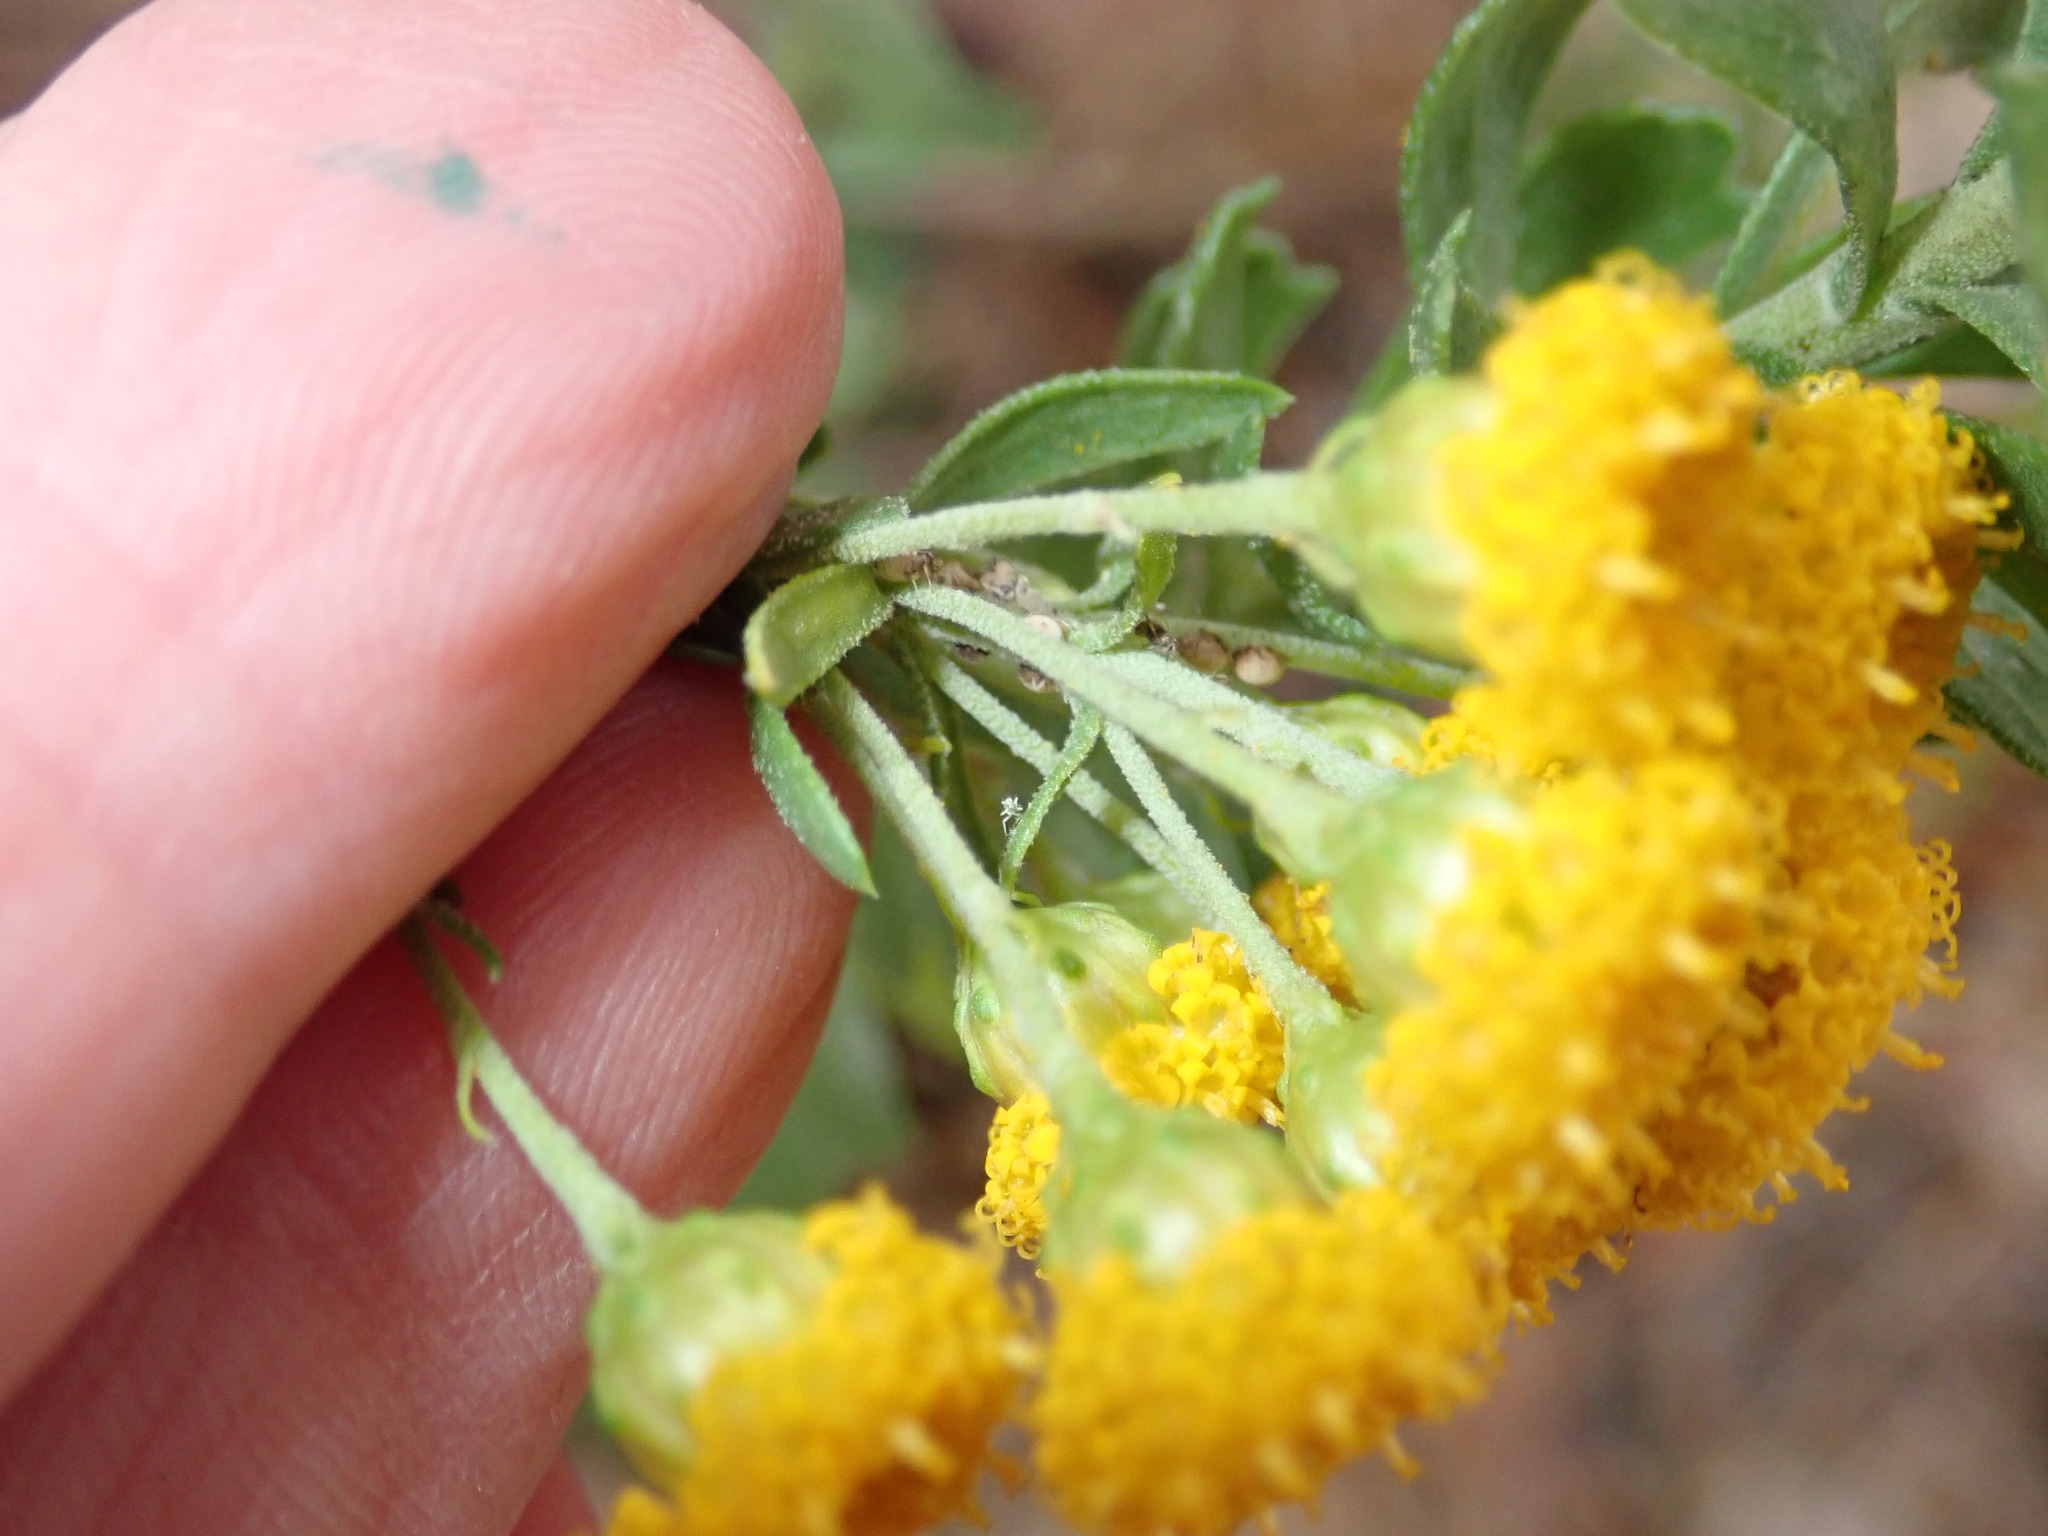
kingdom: Plantae
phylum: Tracheophyta
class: Magnoliopsida
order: Asterales
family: Asteraceae
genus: Athanasia
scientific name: Athanasia trifurcata
